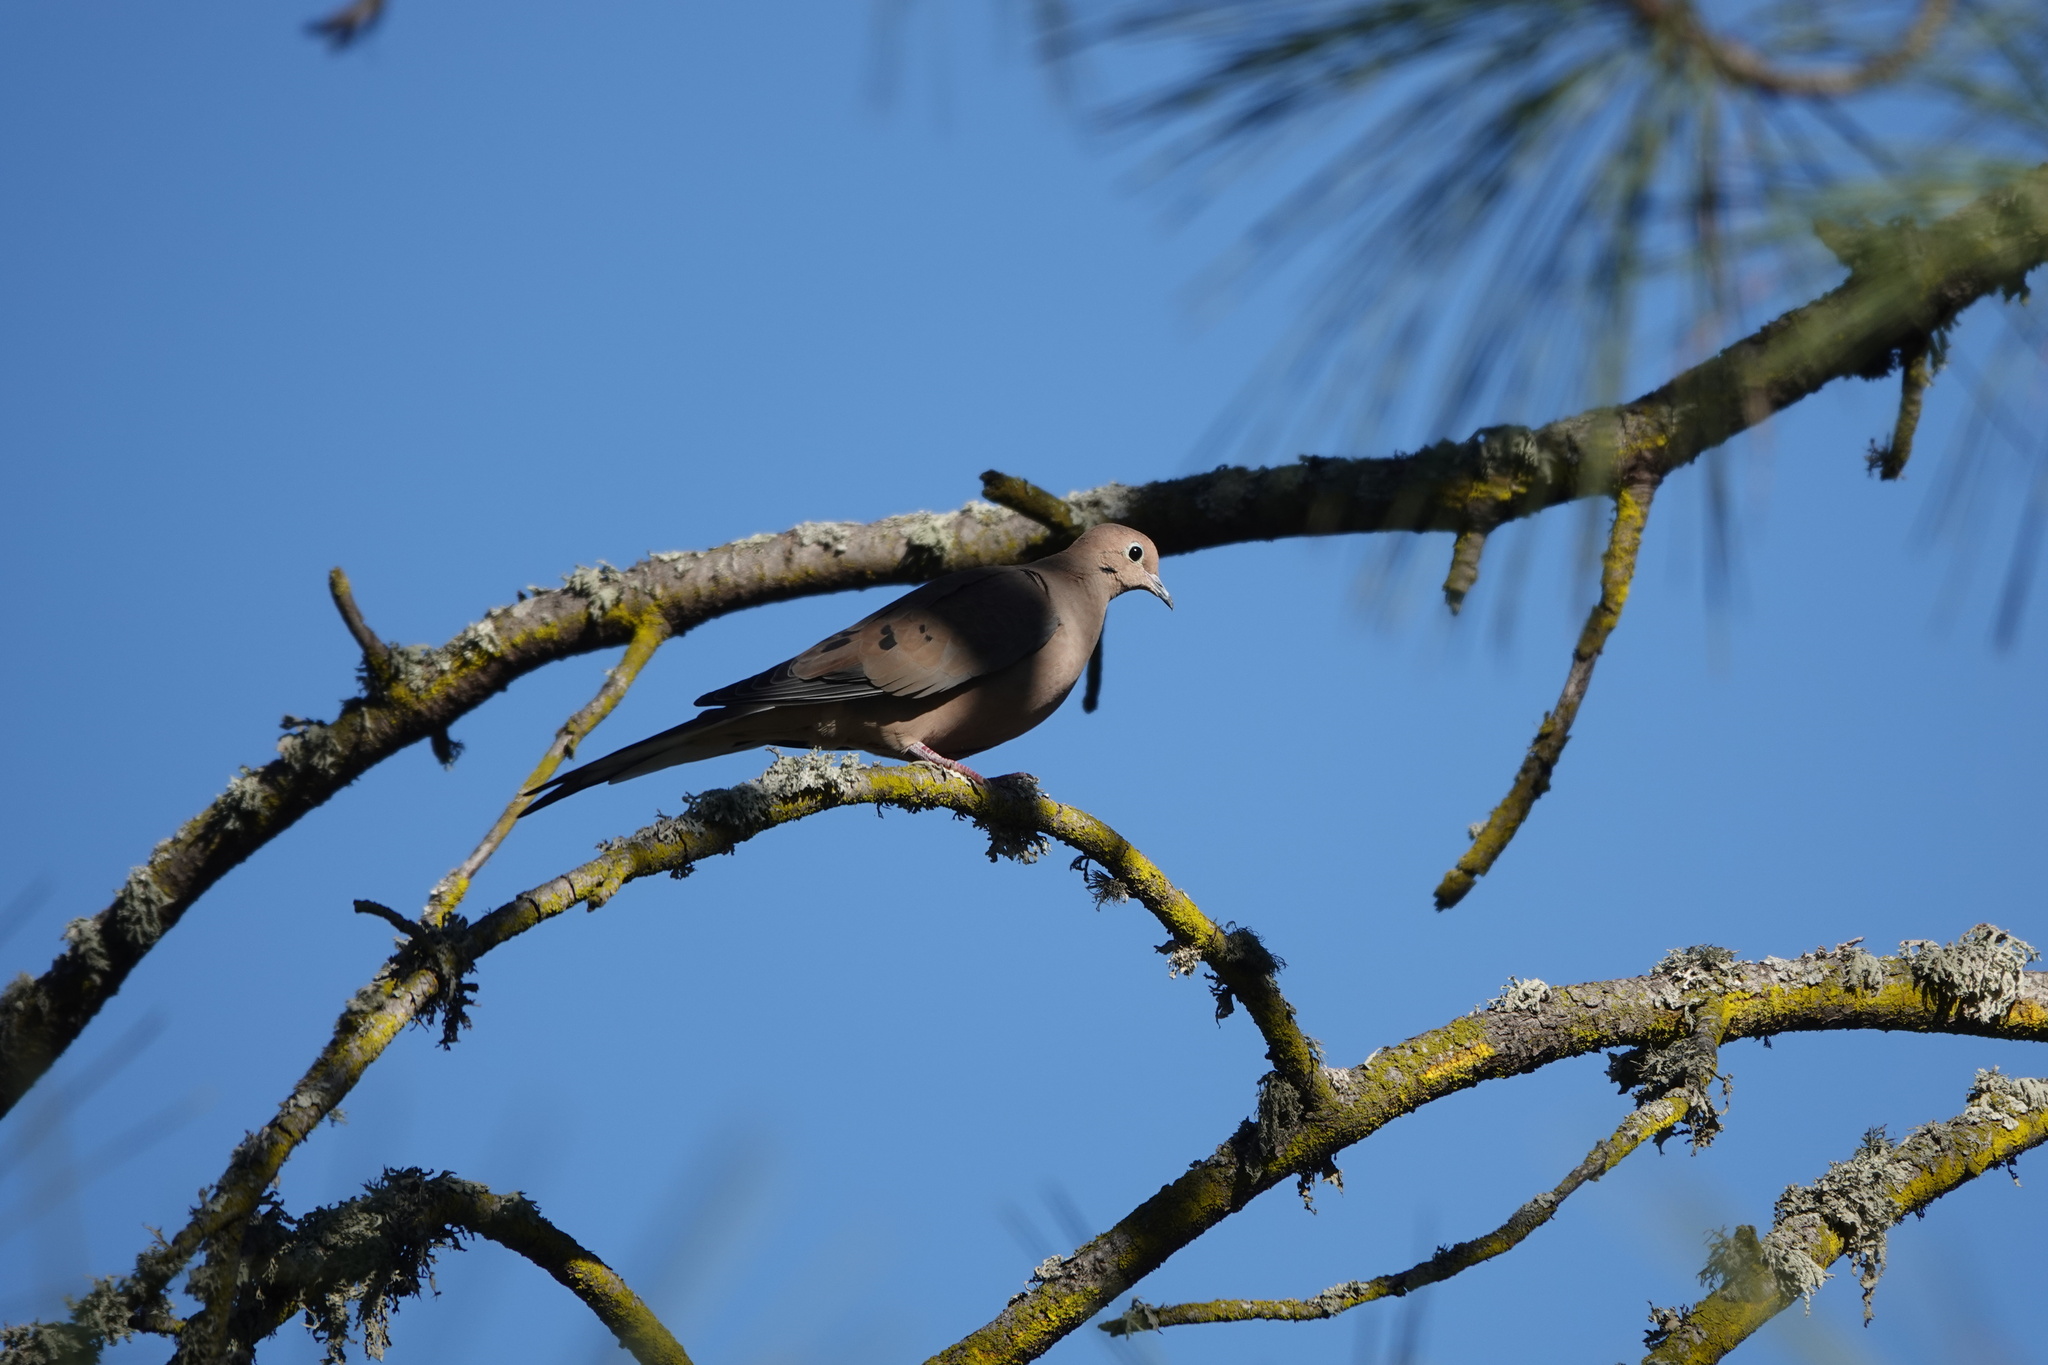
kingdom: Animalia
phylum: Chordata
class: Aves
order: Columbiformes
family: Columbidae
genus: Zenaida
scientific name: Zenaida macroura
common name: Mourning dove
